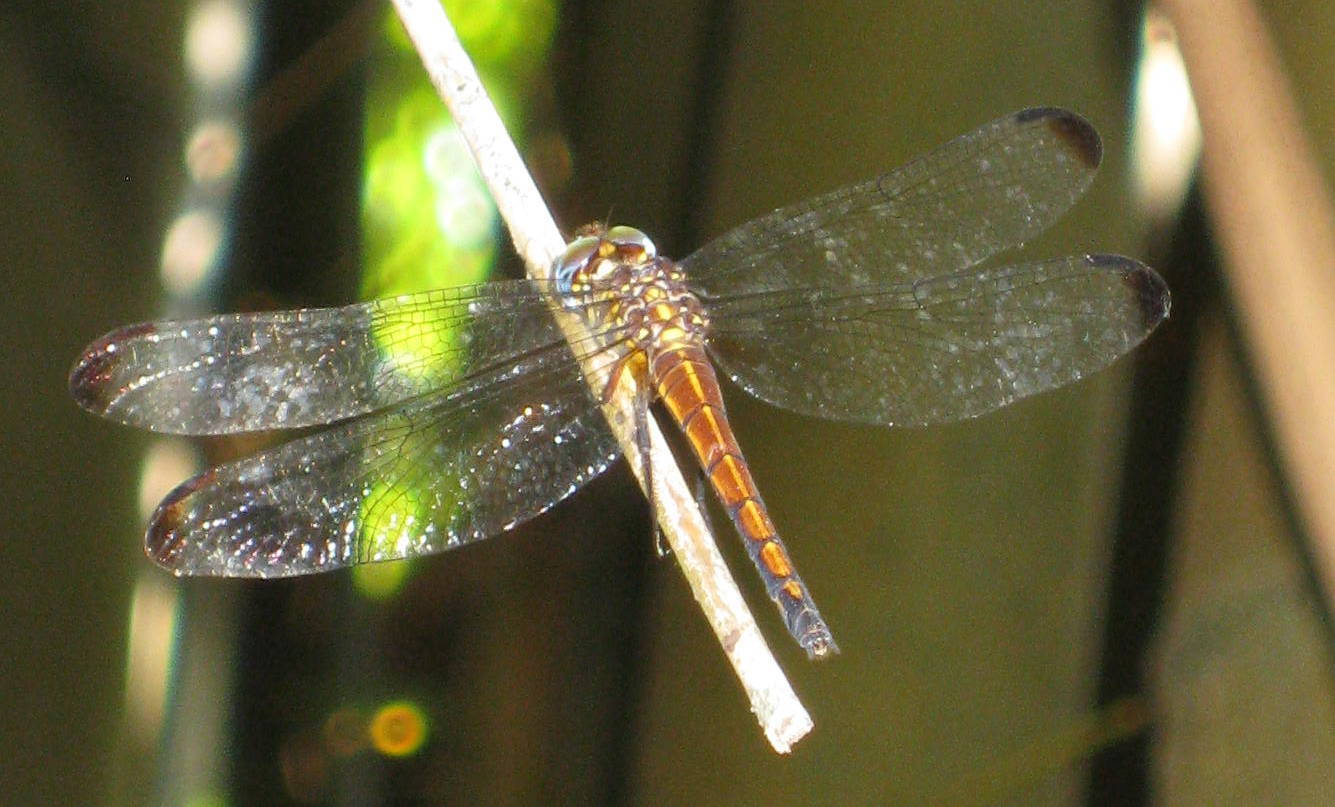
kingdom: Animalia
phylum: Arthropoda
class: Insecta
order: Odonata
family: Libellulidae
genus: Cannaphila
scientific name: Cannaphila insularis
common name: Gray-waisted skimmer
